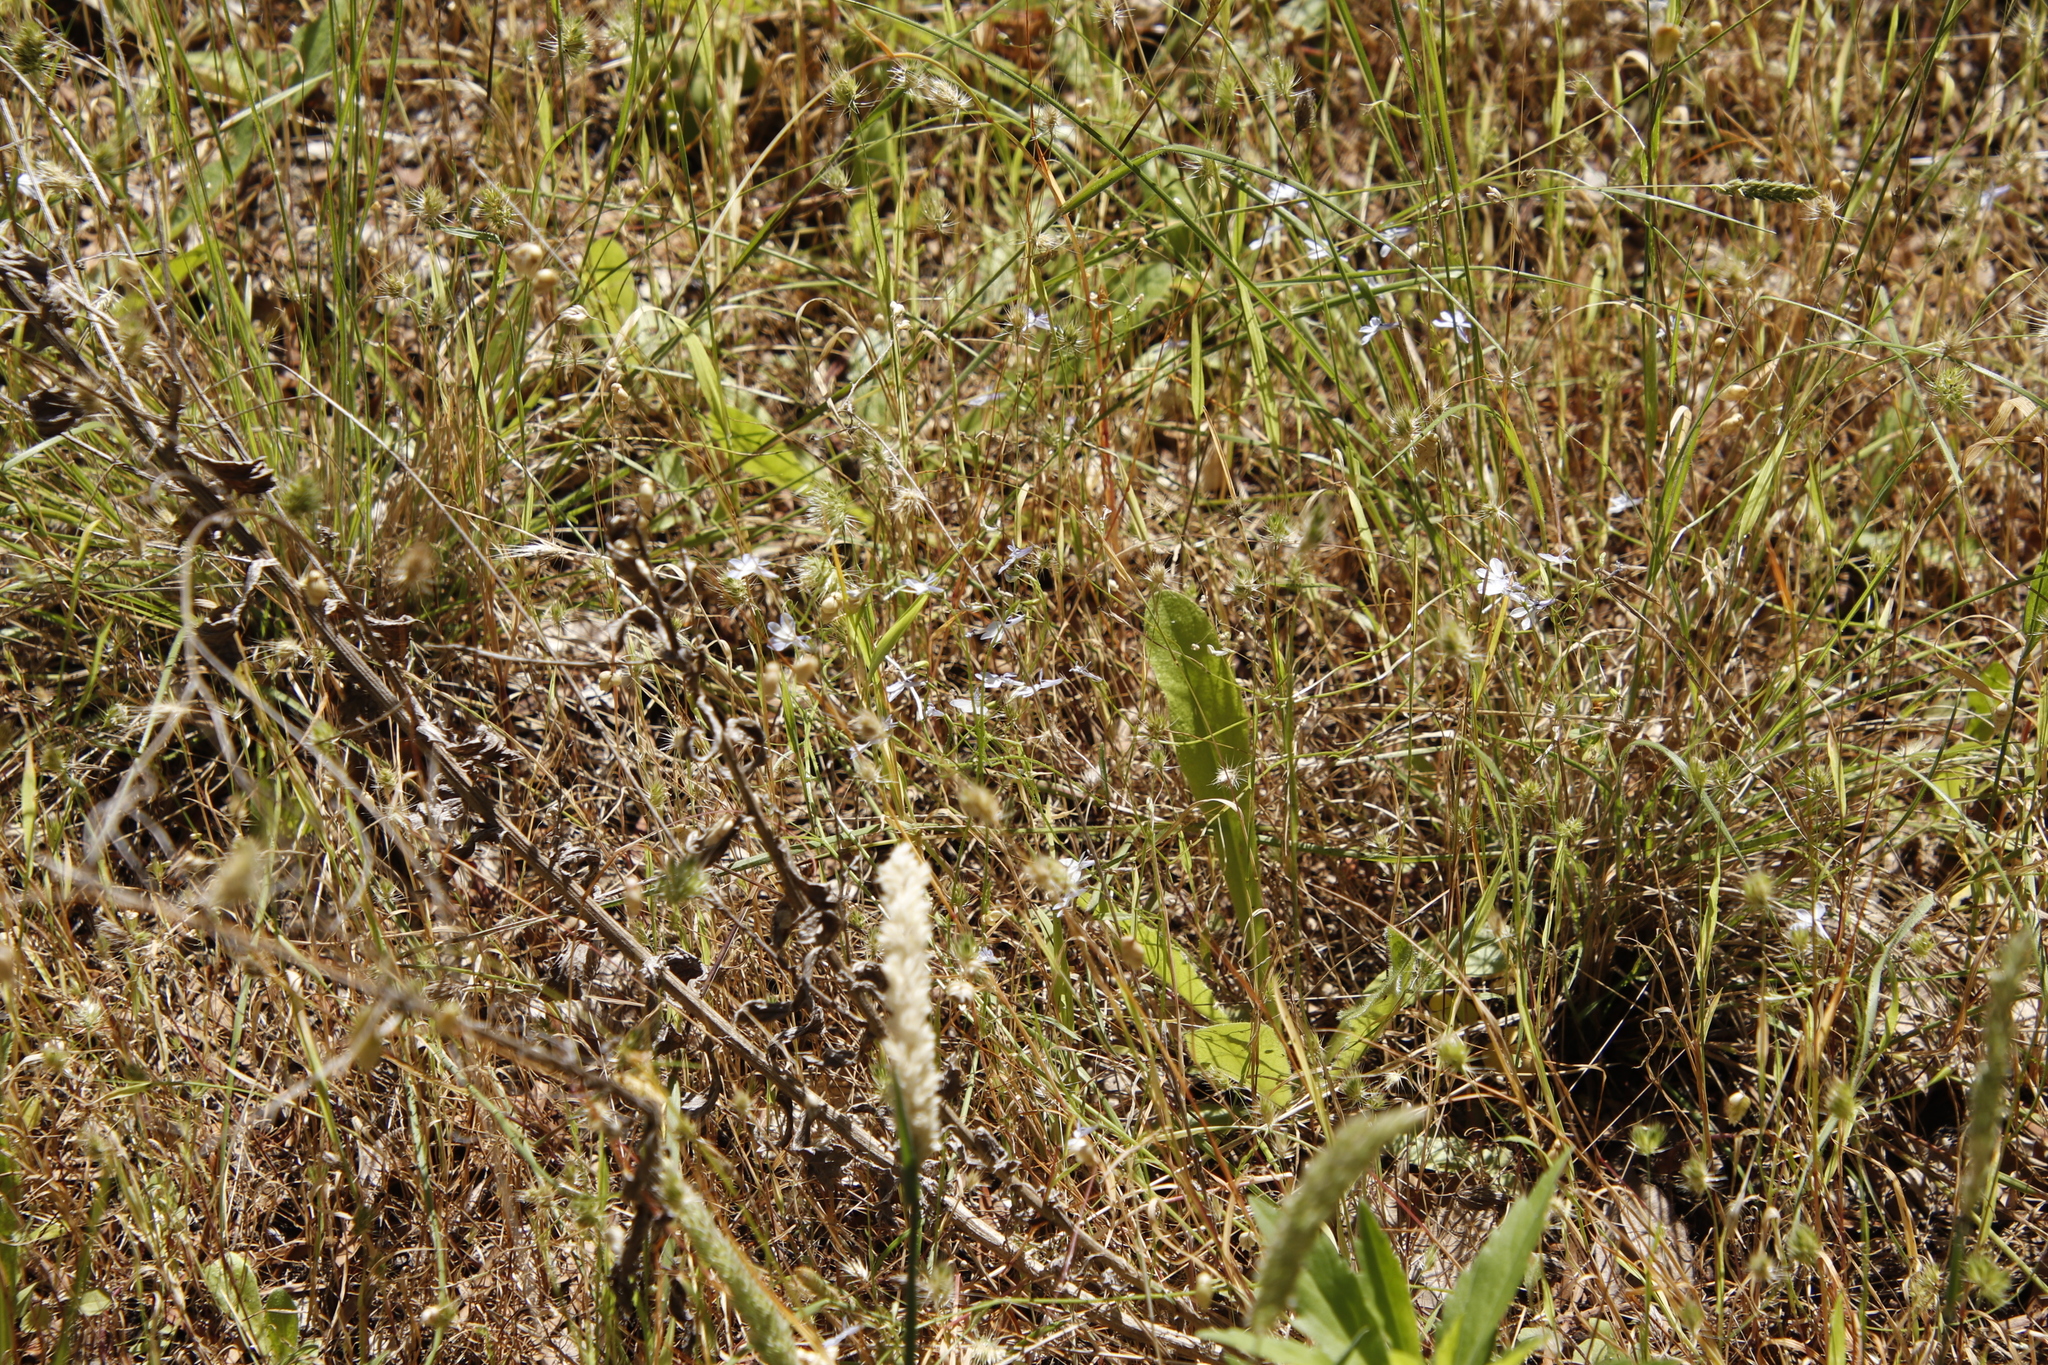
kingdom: Plantae
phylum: Tracheophyta
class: Magnoliopsida
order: Asterales
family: Campanulaceae
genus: Lobelia
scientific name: Lobelia erinus
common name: Edging lobelia
